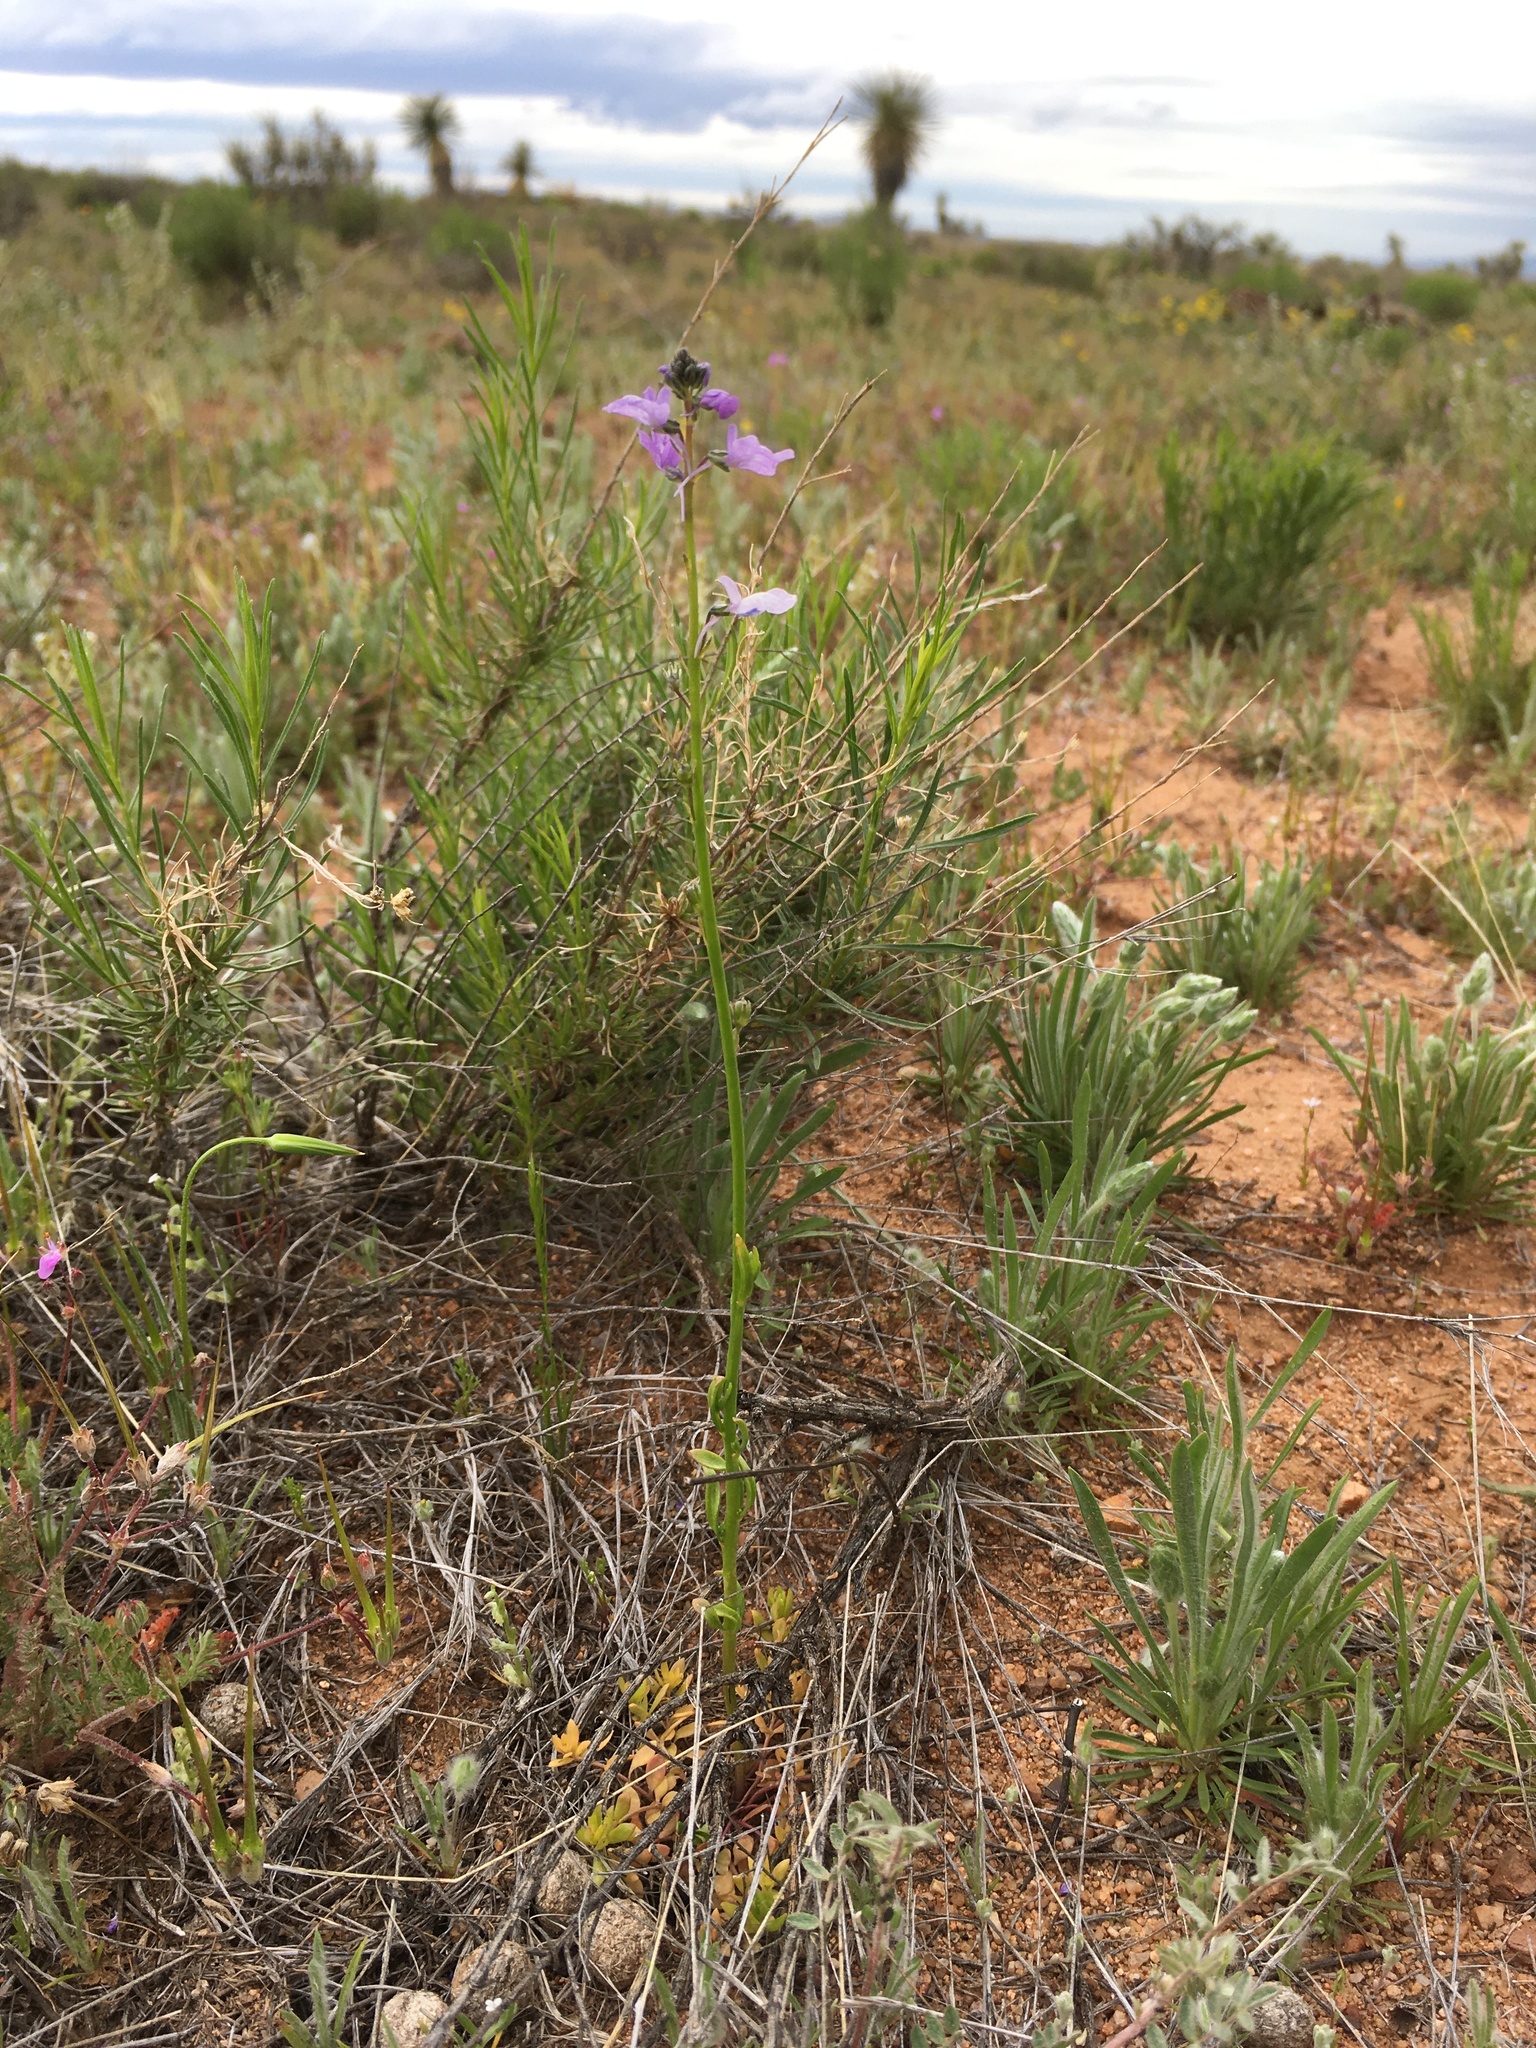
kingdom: Plantae
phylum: Tracheophyta
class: Magnoliopsida
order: Lamiales
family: Plantaginaceae
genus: Nuttallanthus
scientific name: Nuttallanthus texanus
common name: Texas toadflax
